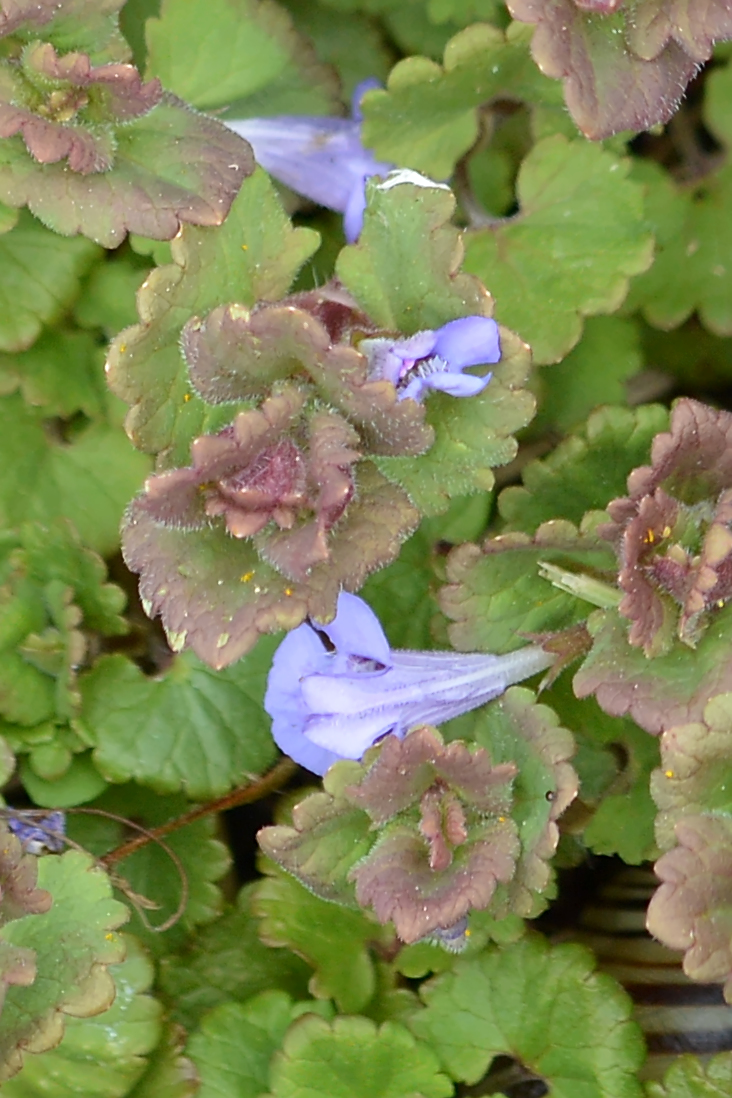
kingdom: Plantae
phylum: Tracheophyta
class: Magnoliopsida
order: Lamiales
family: Lamiaceae
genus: Glechoma
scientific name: Glechoma hederacea
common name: Ground ivy
